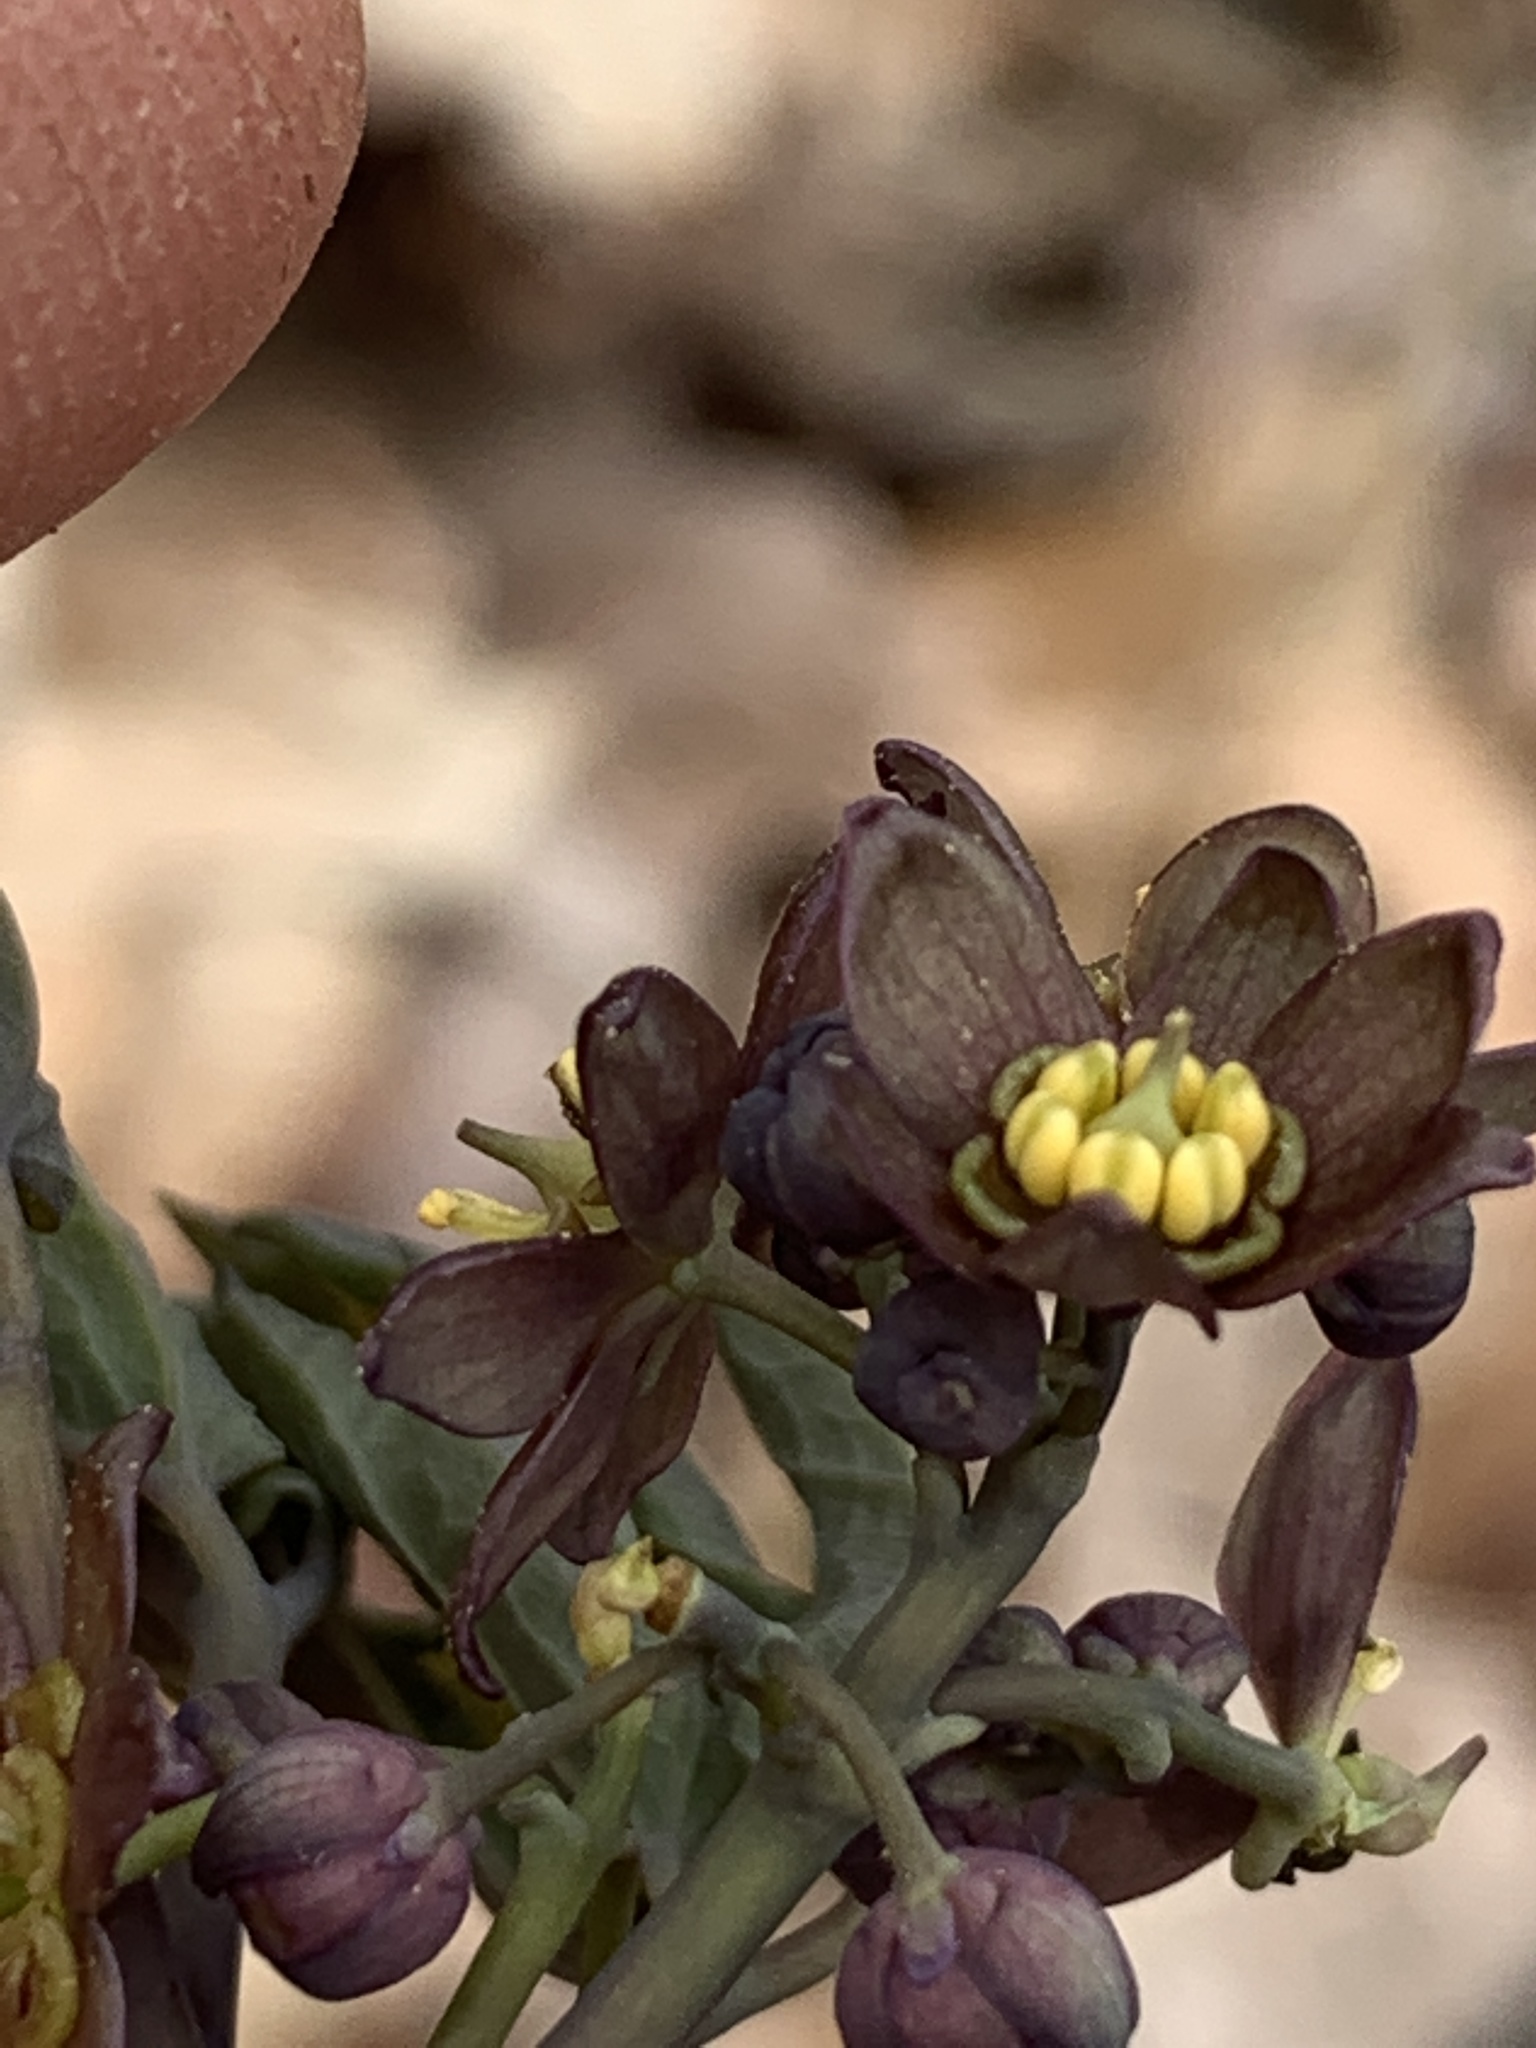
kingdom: Plantae
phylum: Tracheophyta
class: Magnoliopsida
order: Ranunculales
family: Berberidaceae
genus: Caulophyllum
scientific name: Caulophyllum giganteum
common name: Blue cohosh
